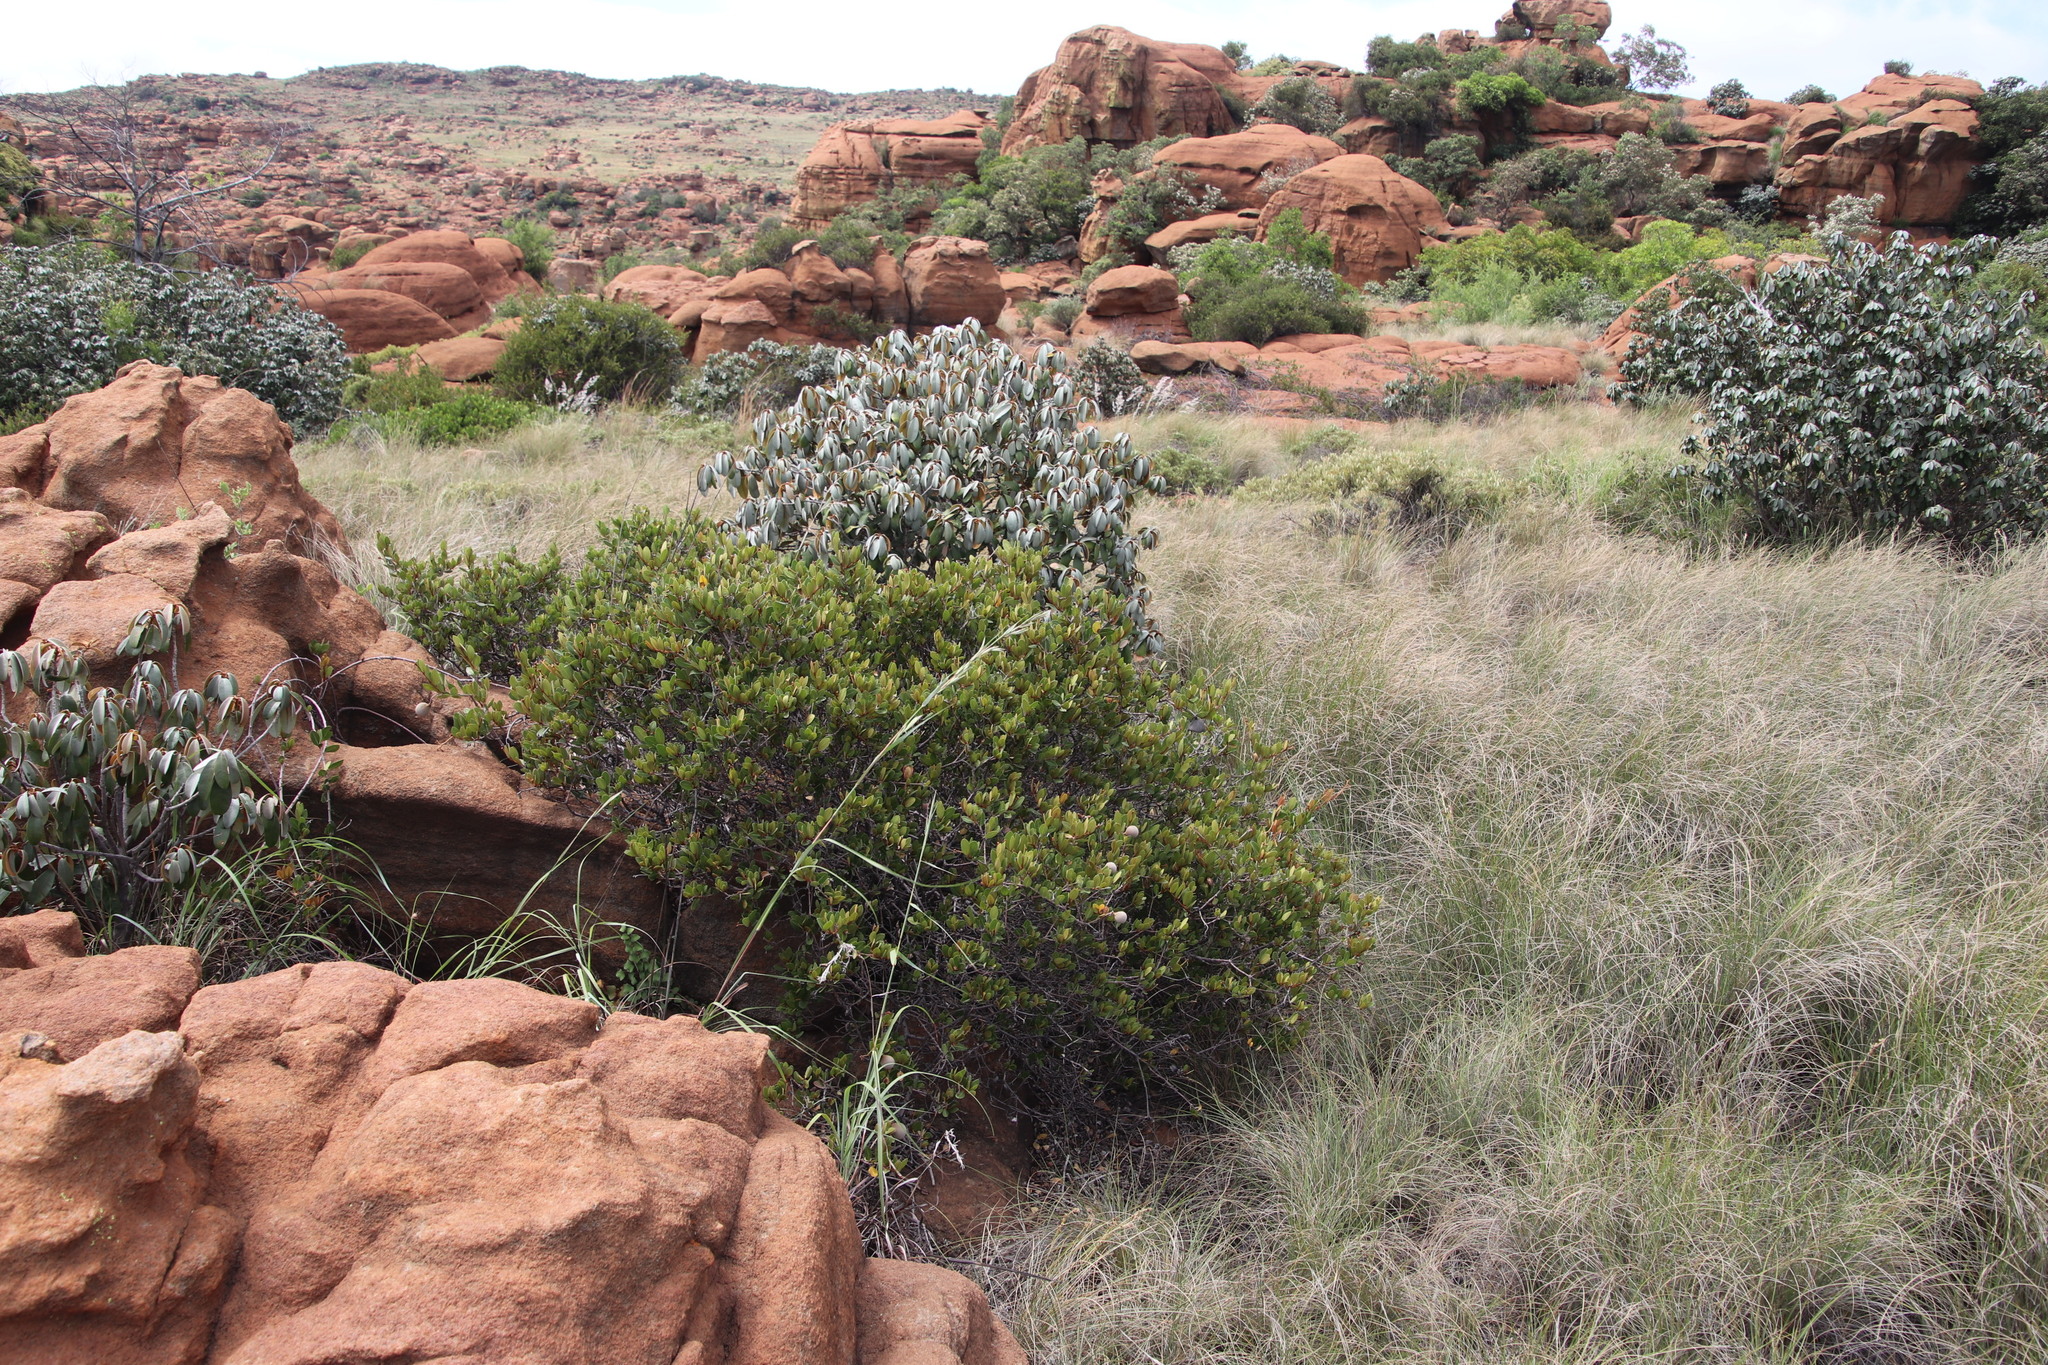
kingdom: Plantae
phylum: Tracheophyta
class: Magnoliopsida
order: Gentianales
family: Apocynaceae
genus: Ancylobothrys
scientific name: Ancylobothrys capensis
